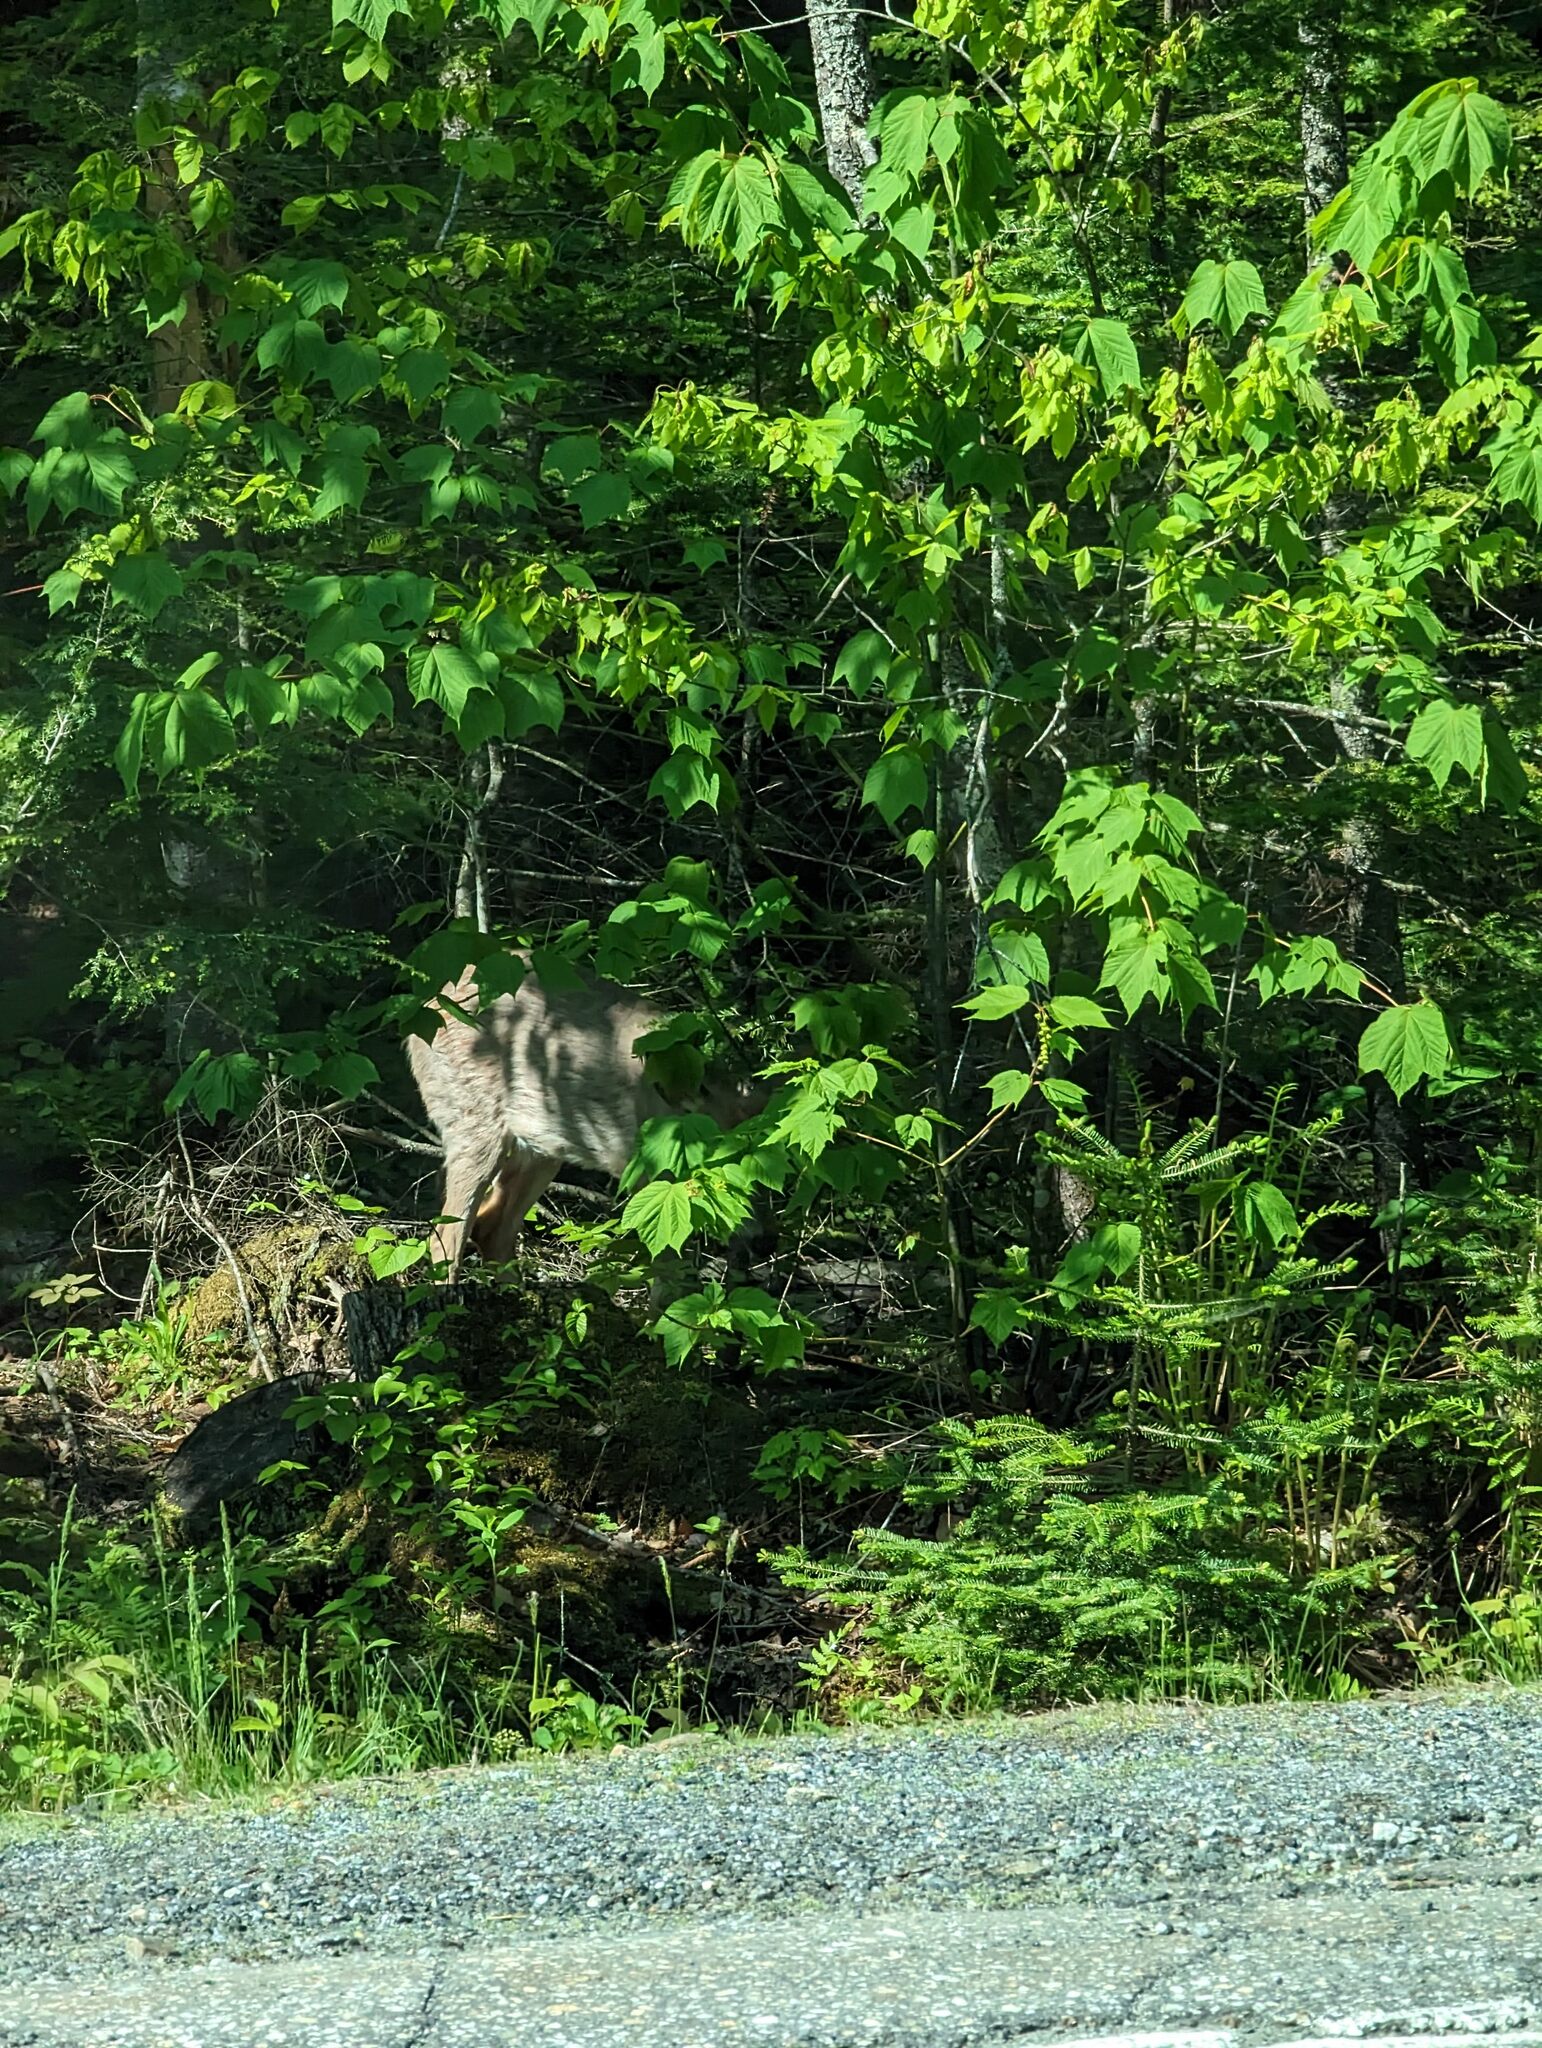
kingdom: Animalia
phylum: Chordata
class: Mammalia
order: Artiodactyla
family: Cervidae
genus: Odocoileus
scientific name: Odocoileus virginianus
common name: White-tailed deer
